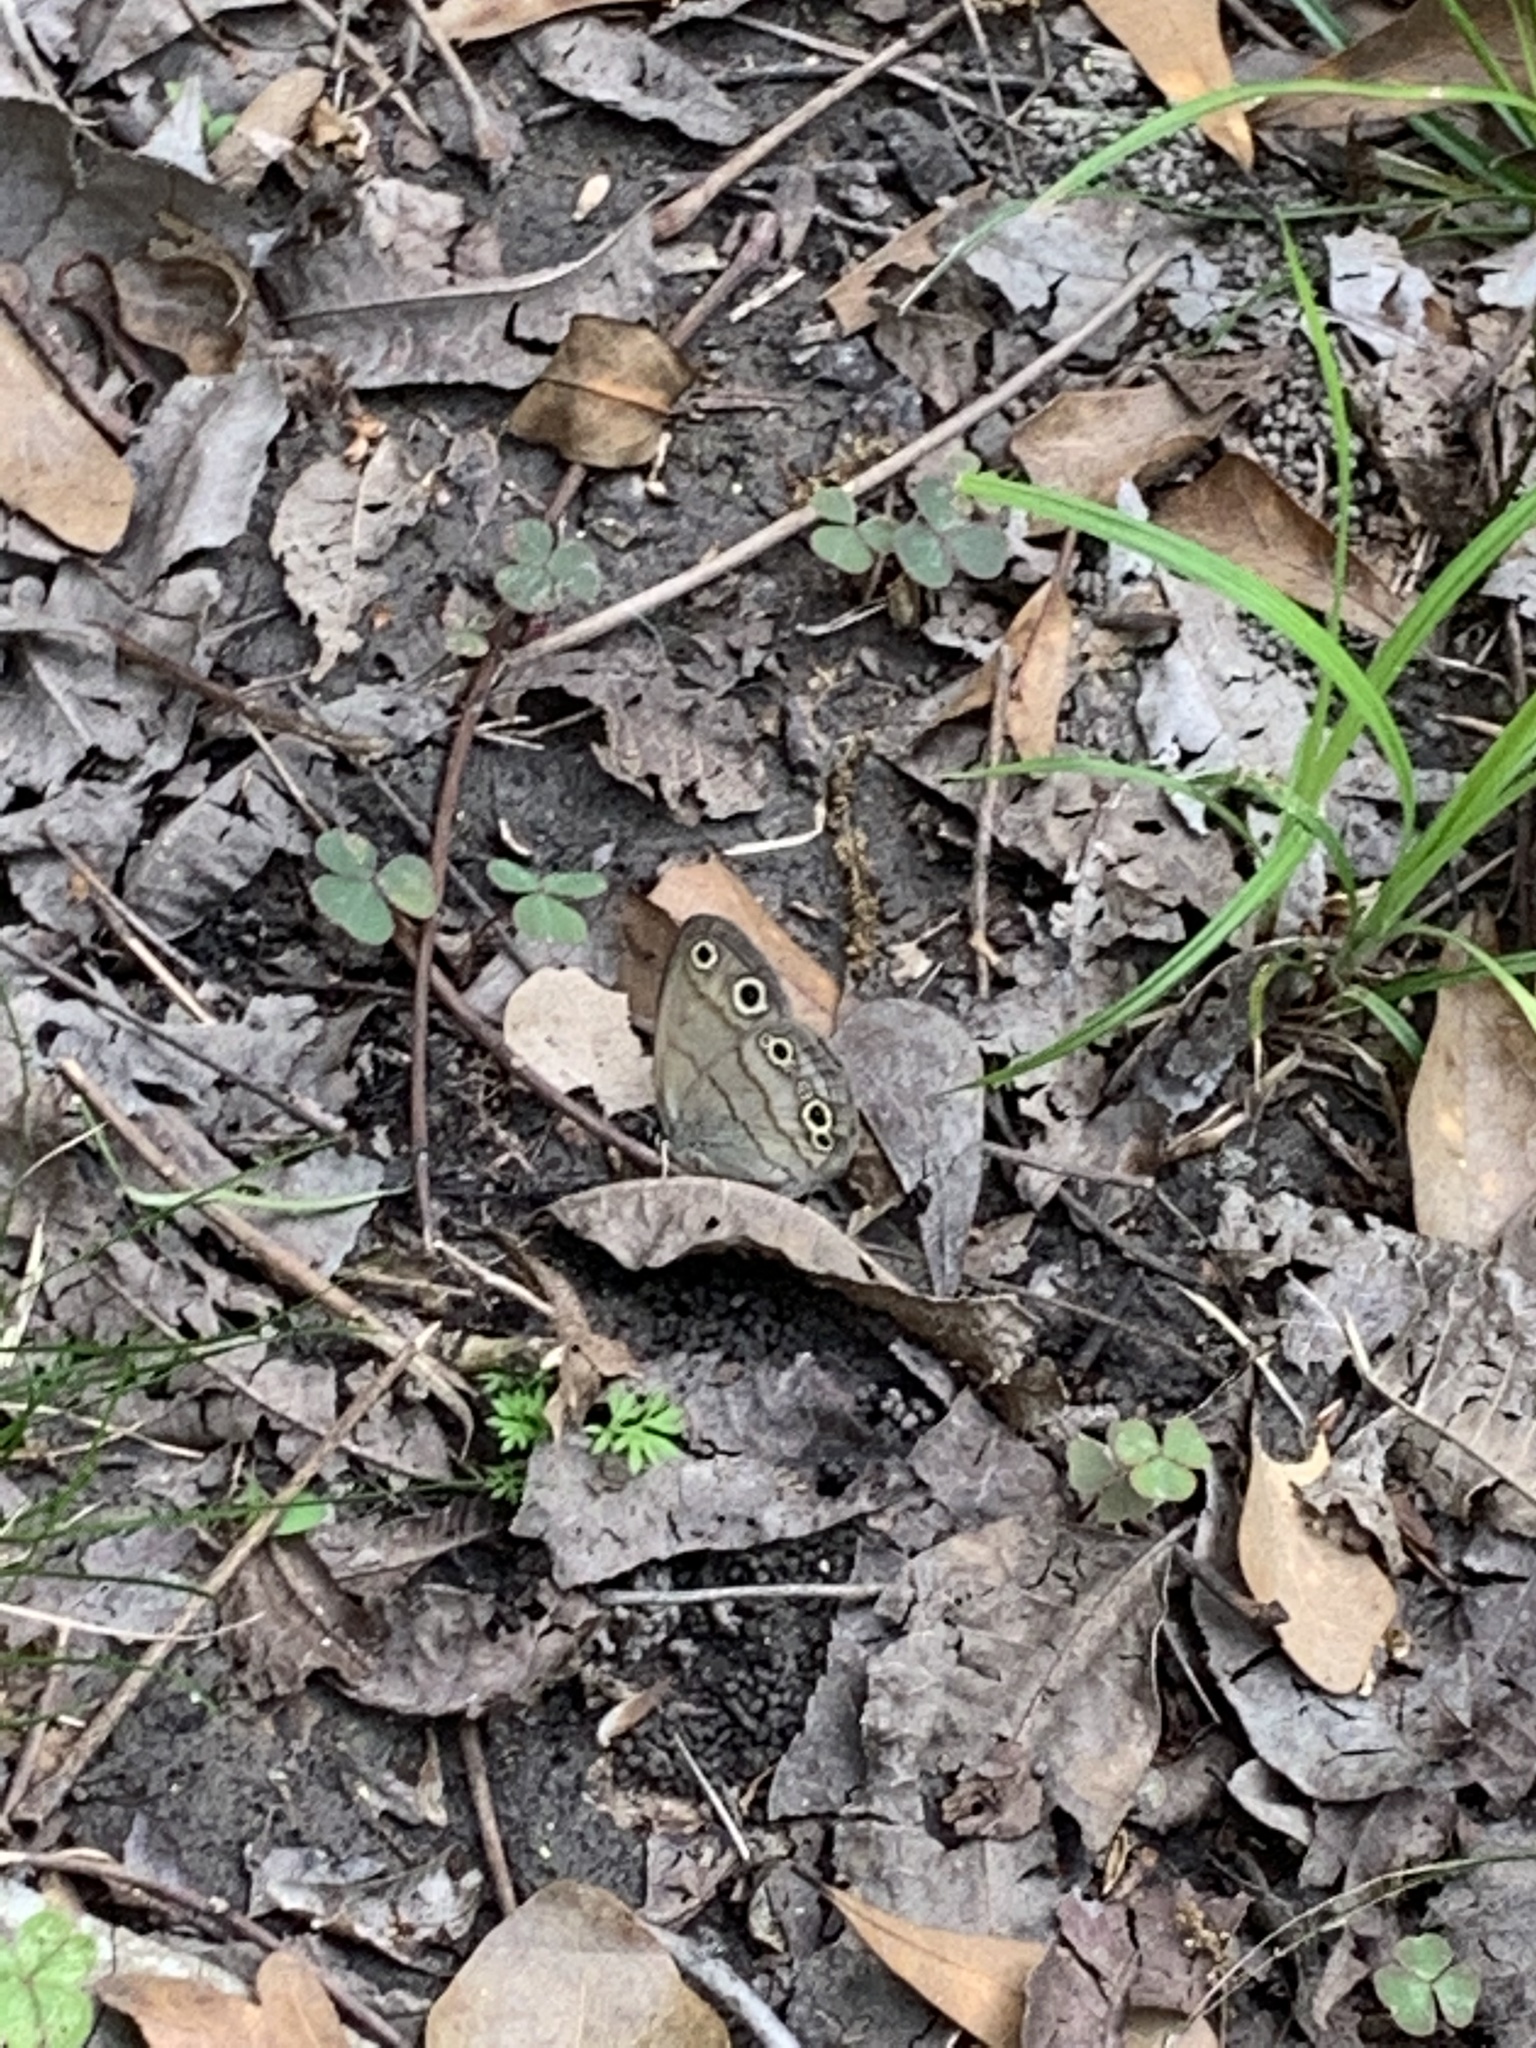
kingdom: Animalia
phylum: Arthropoda
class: Insecta
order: Lepidoptera
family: Nymphalidae
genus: Euptychia
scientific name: Euptychia cymela
